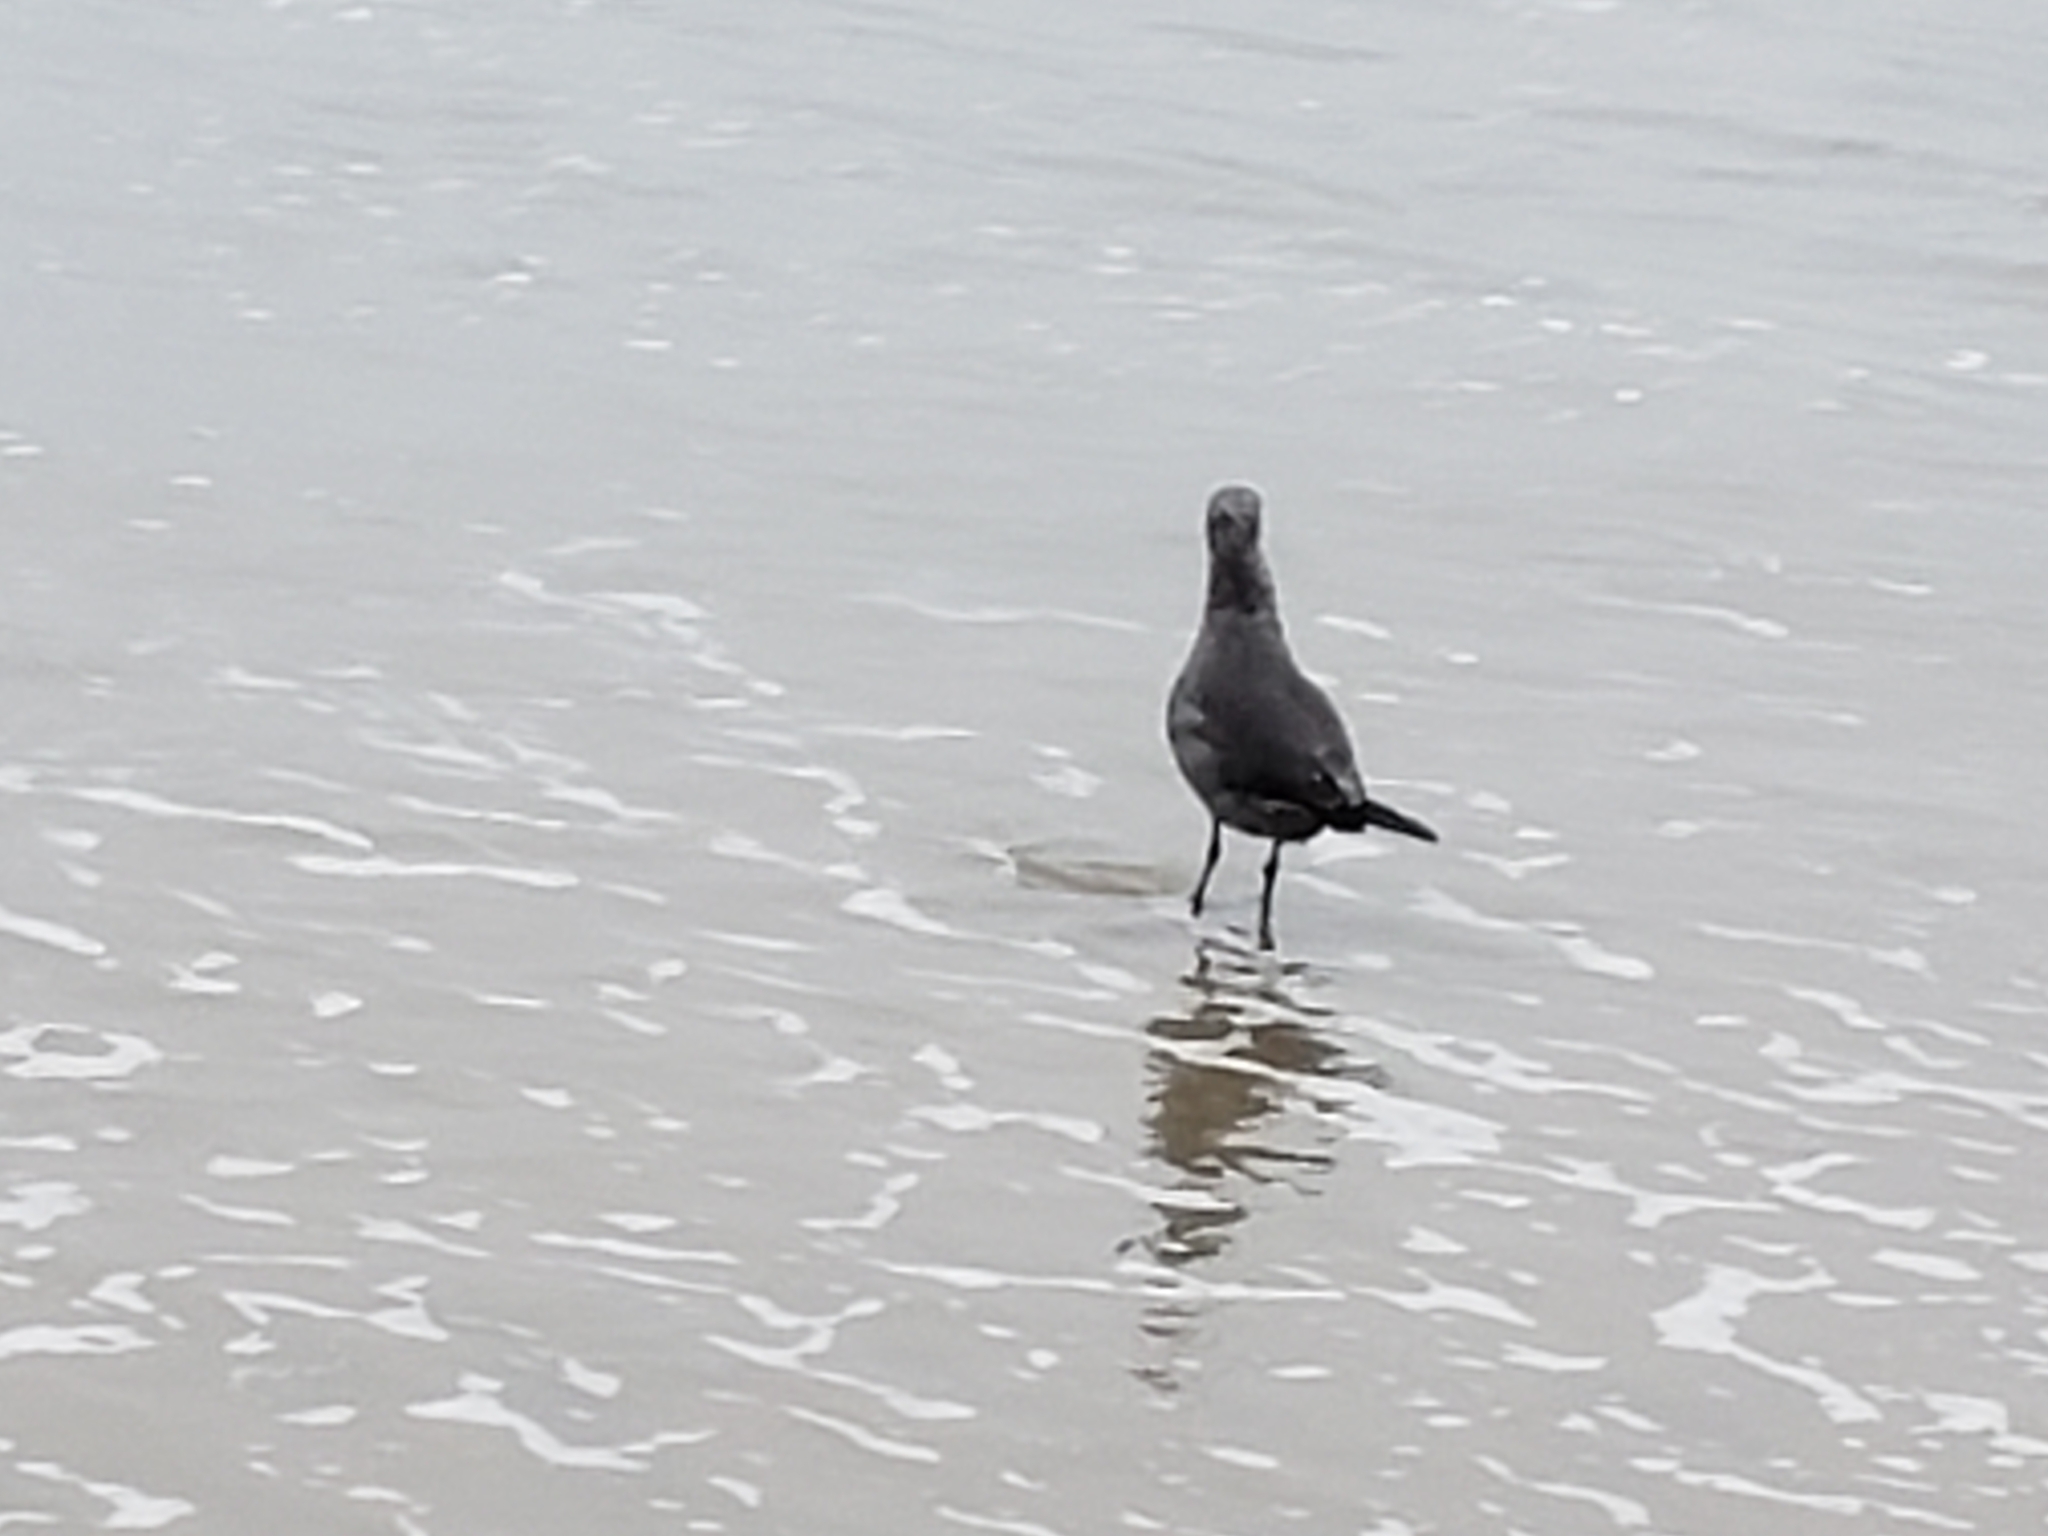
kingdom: Animalia
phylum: Chordata
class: Aves
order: Charadriiformes
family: Laridae
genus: Larus
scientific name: Larus heermanni
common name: Heermann's gull
